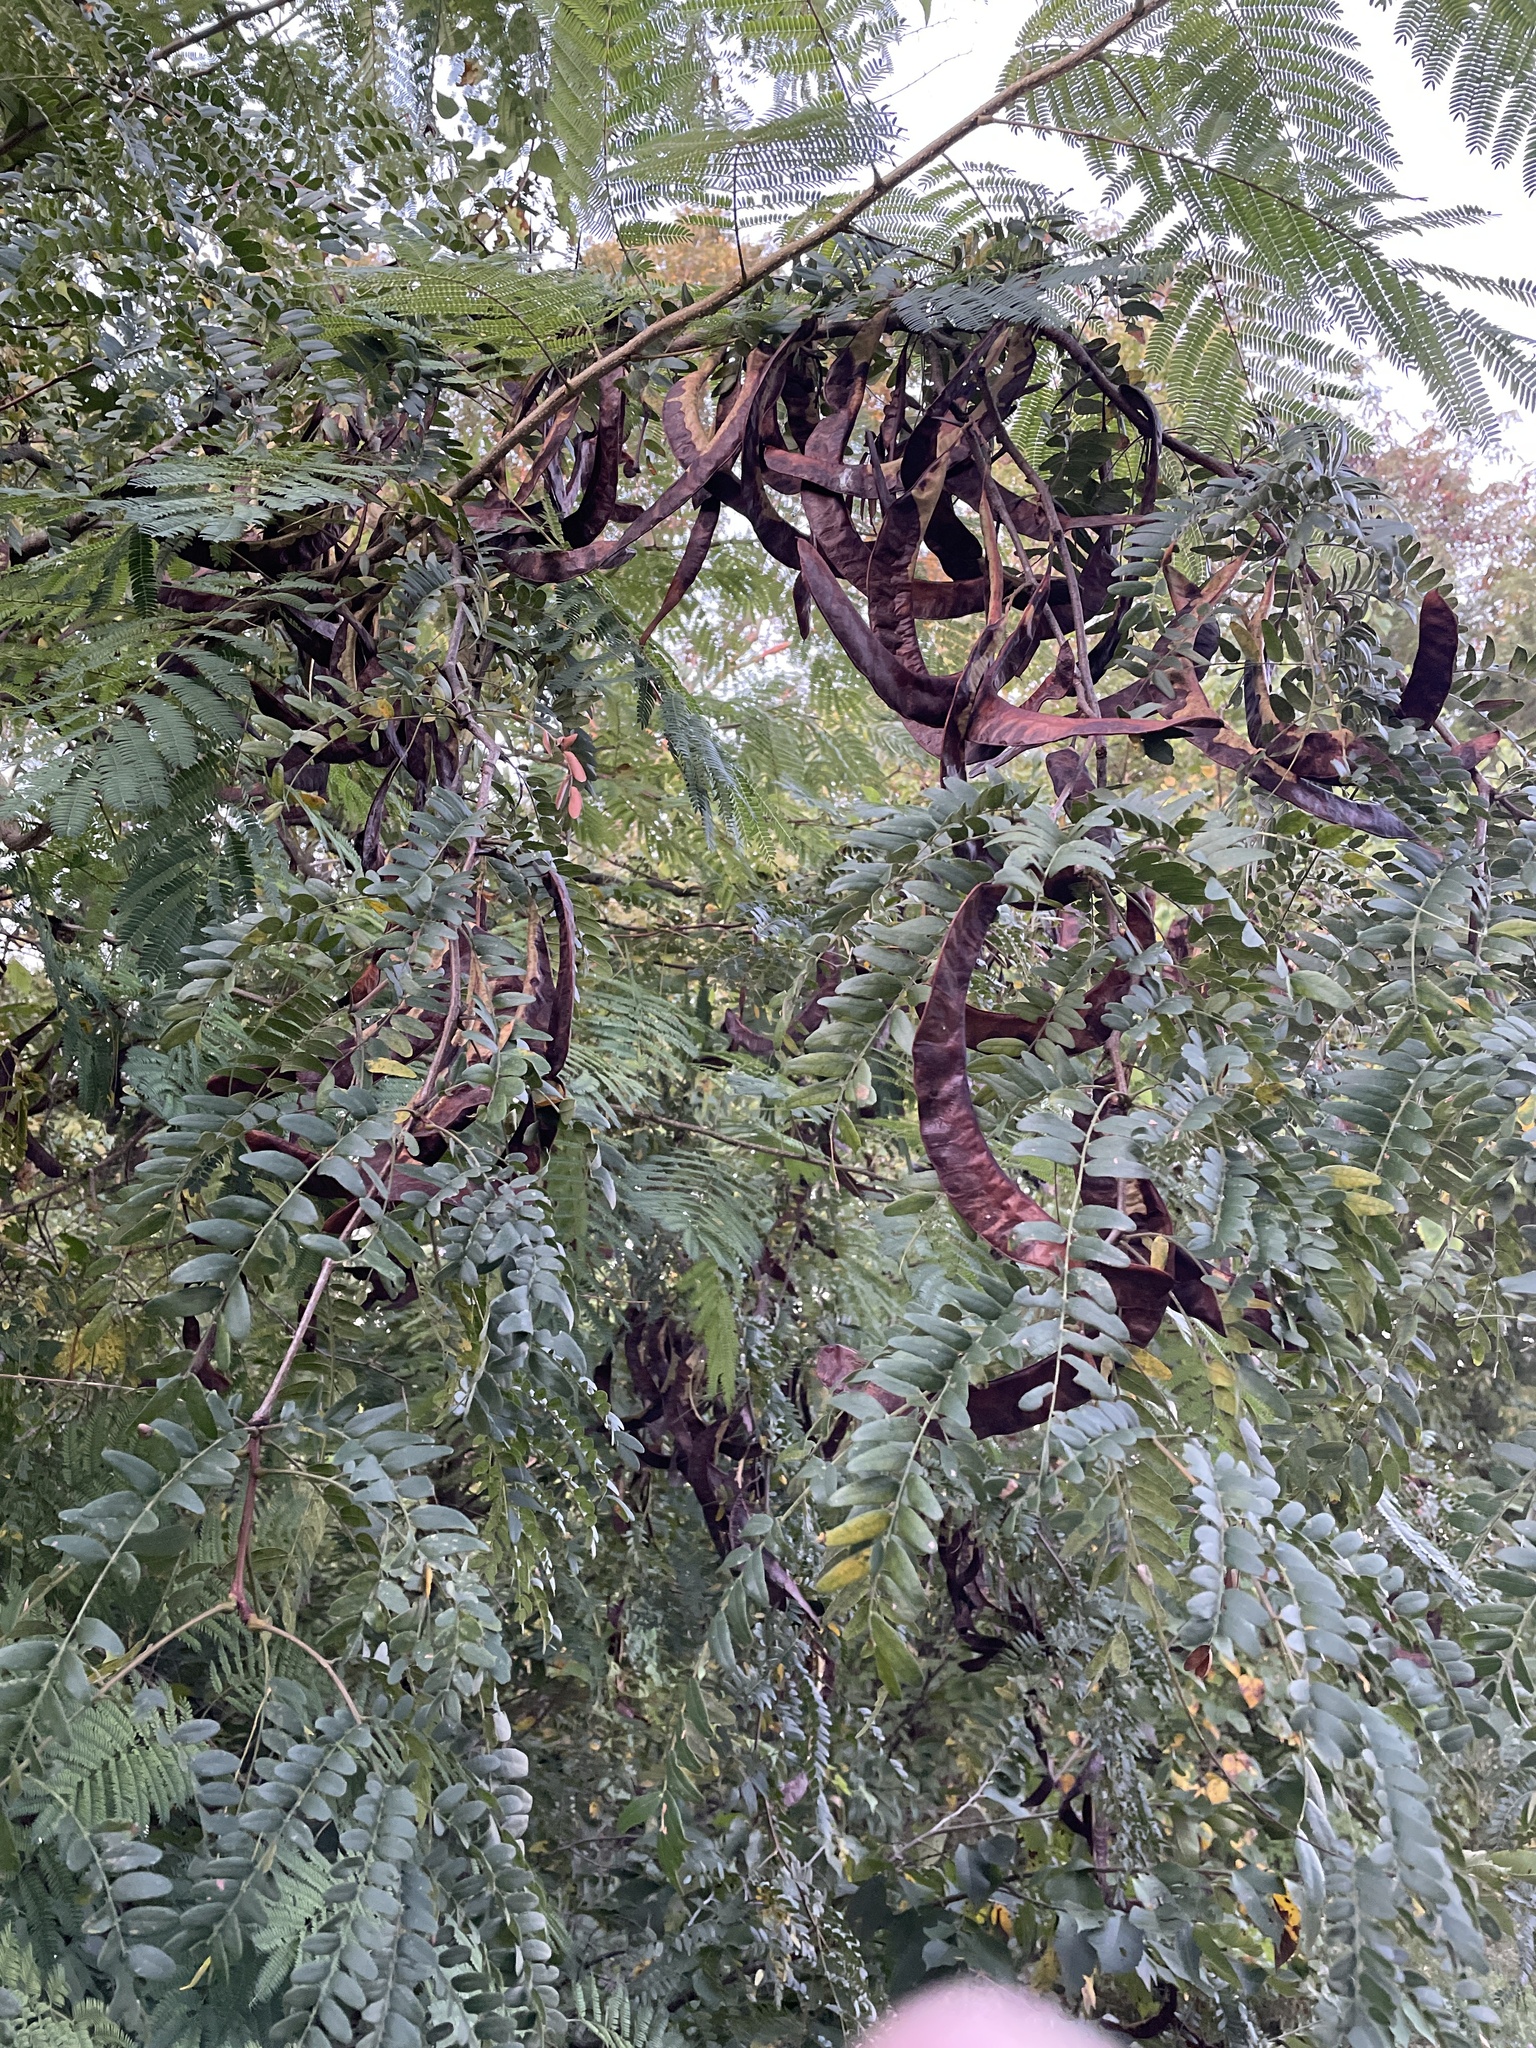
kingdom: Plantae
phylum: Tracheophyta
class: Magnoliopsida
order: Fabales
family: Fabaceae
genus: Gleditsia
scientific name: Gleditsia triacanthos
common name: Common honeylocust
